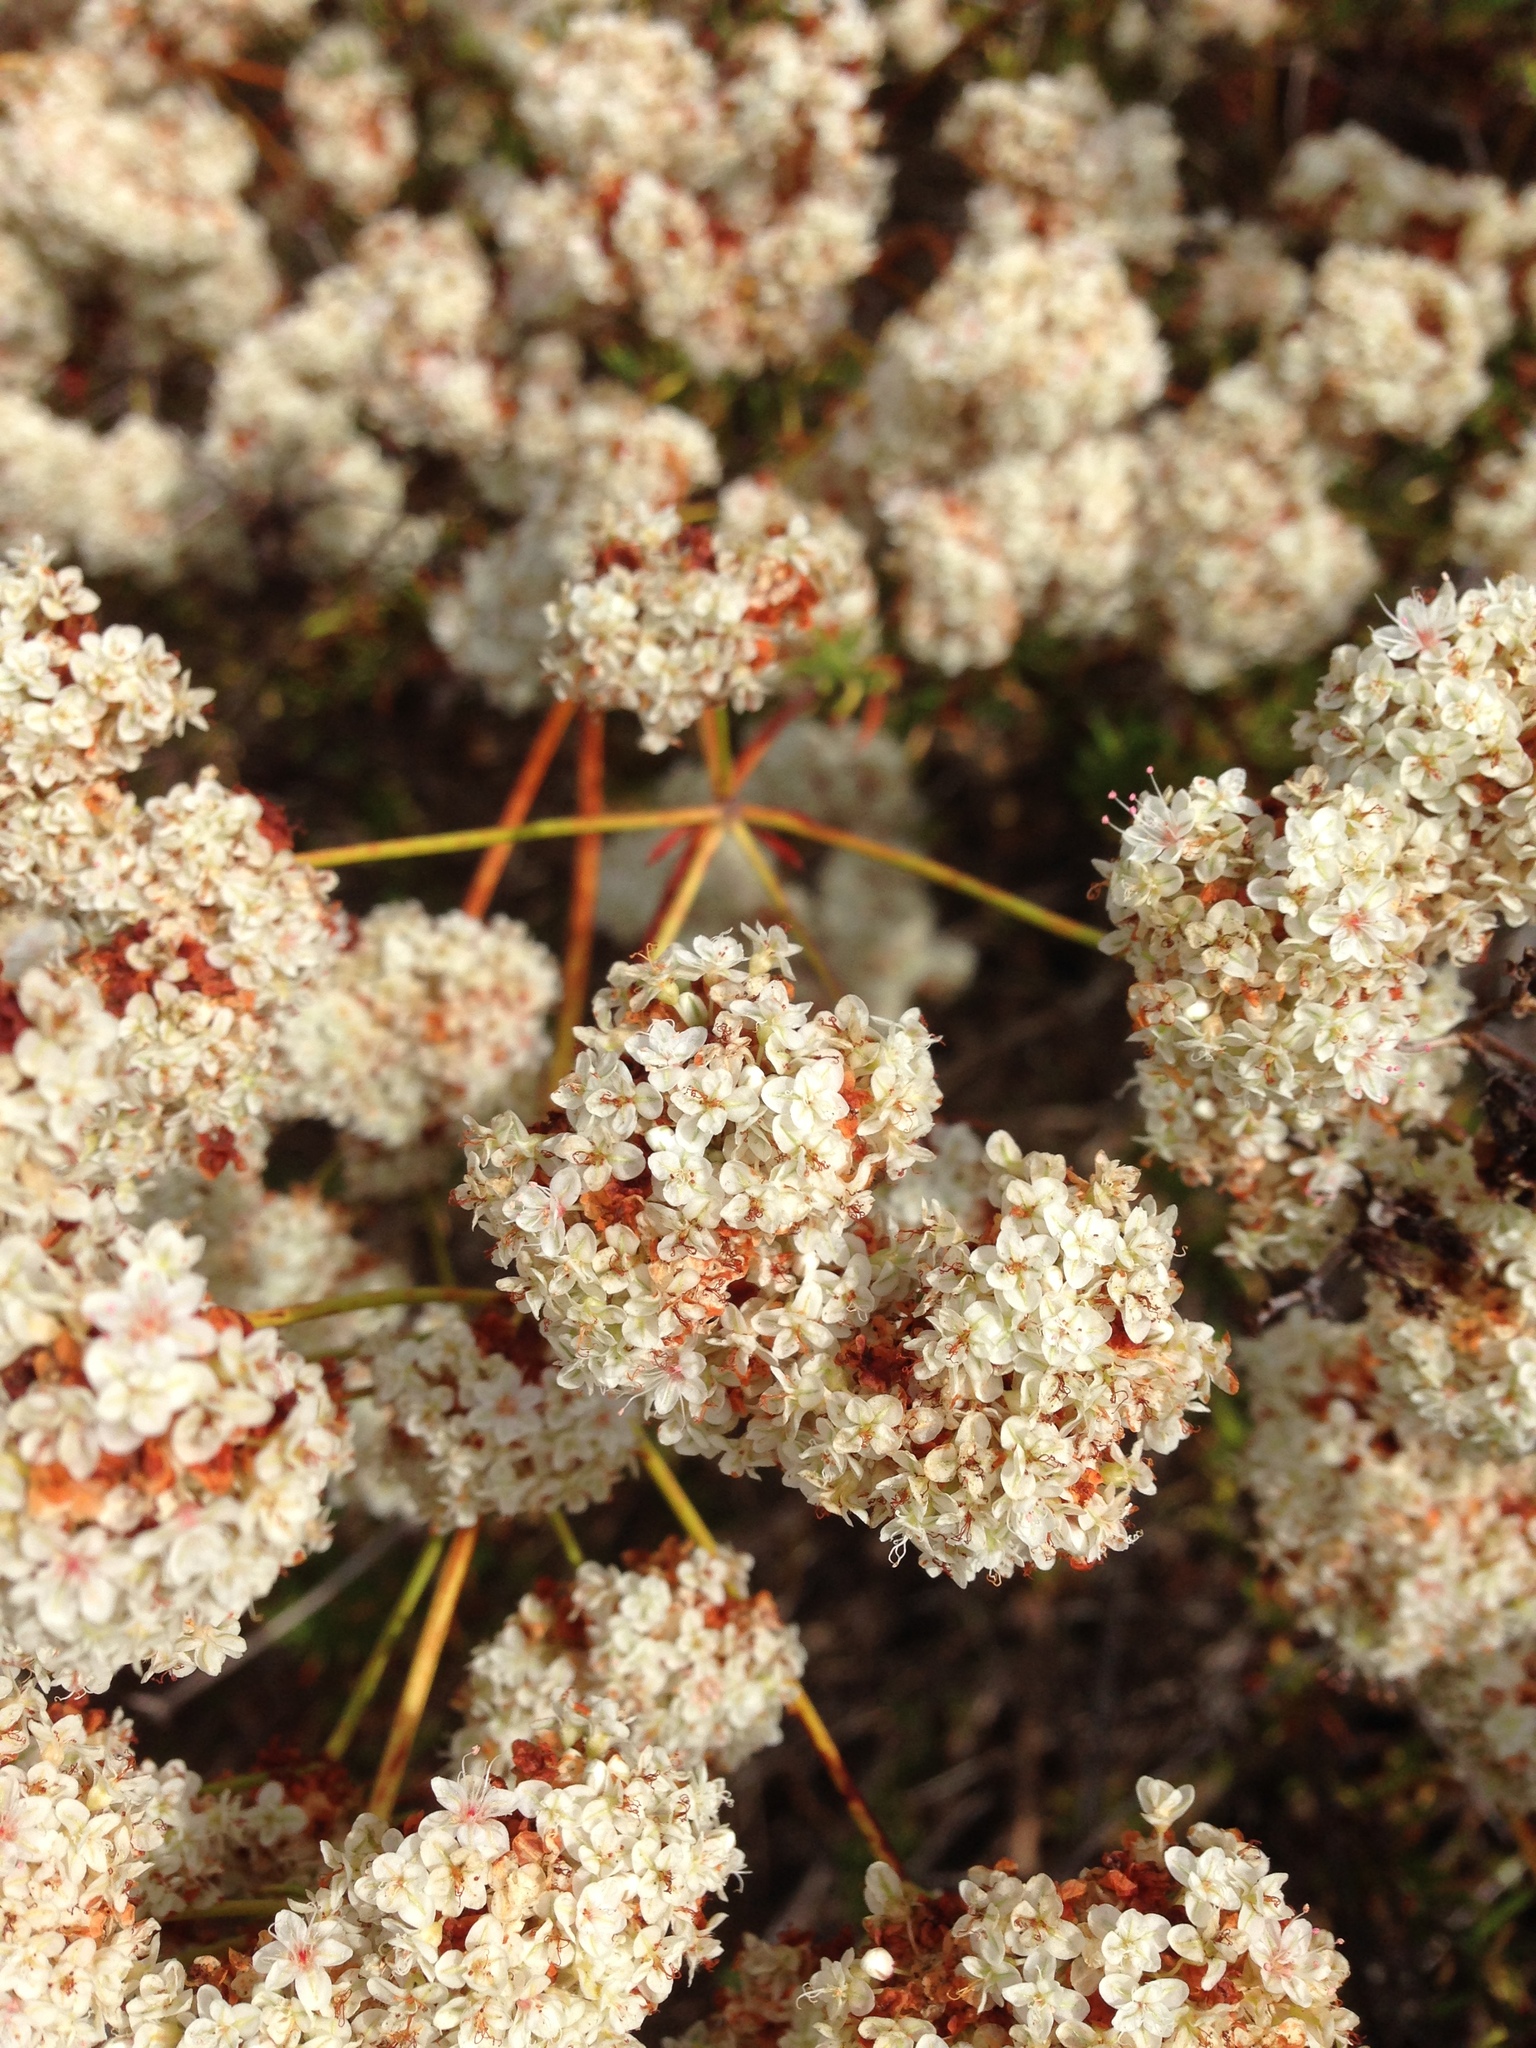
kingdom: Plantae
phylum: Tracheophyta
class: Magnoliopsida
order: Caryophyllales
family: Polygonaceae
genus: Eriogonum
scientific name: Eriogonum fasciculatum
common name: California wild buckwheat
